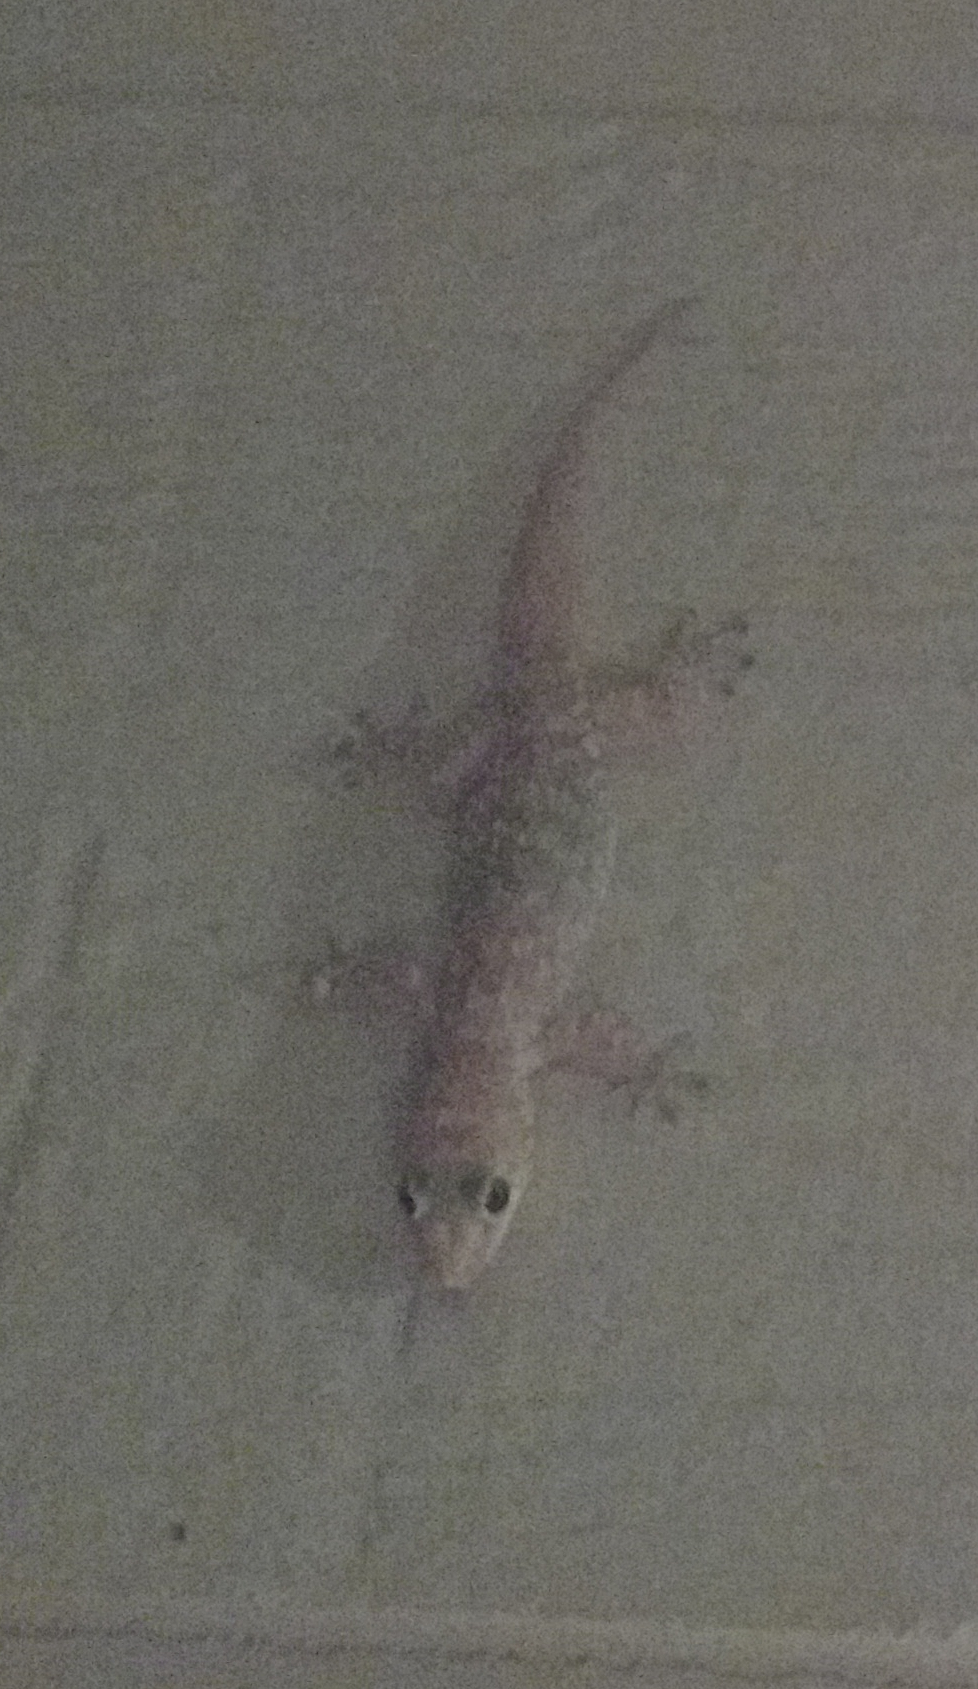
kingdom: Animalia
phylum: Chordata
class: Squamata
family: Gekkonidae
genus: Hemidactylus
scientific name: Hemidactylus turcicus
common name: Turkish gecko
